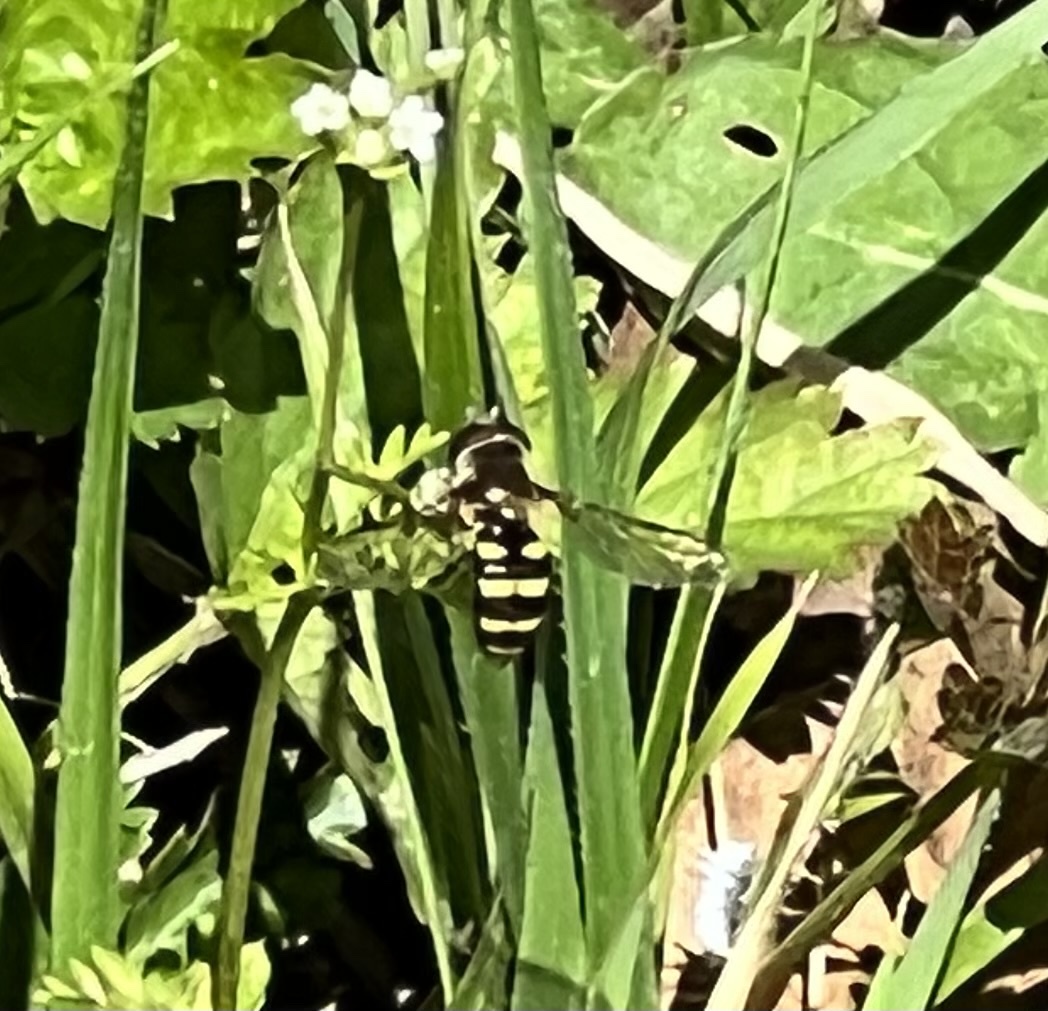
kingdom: Animalia
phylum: Arthropoda
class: Insecta
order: Diptera
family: Syrphidae
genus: Eupeodes
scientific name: Eupeodes
